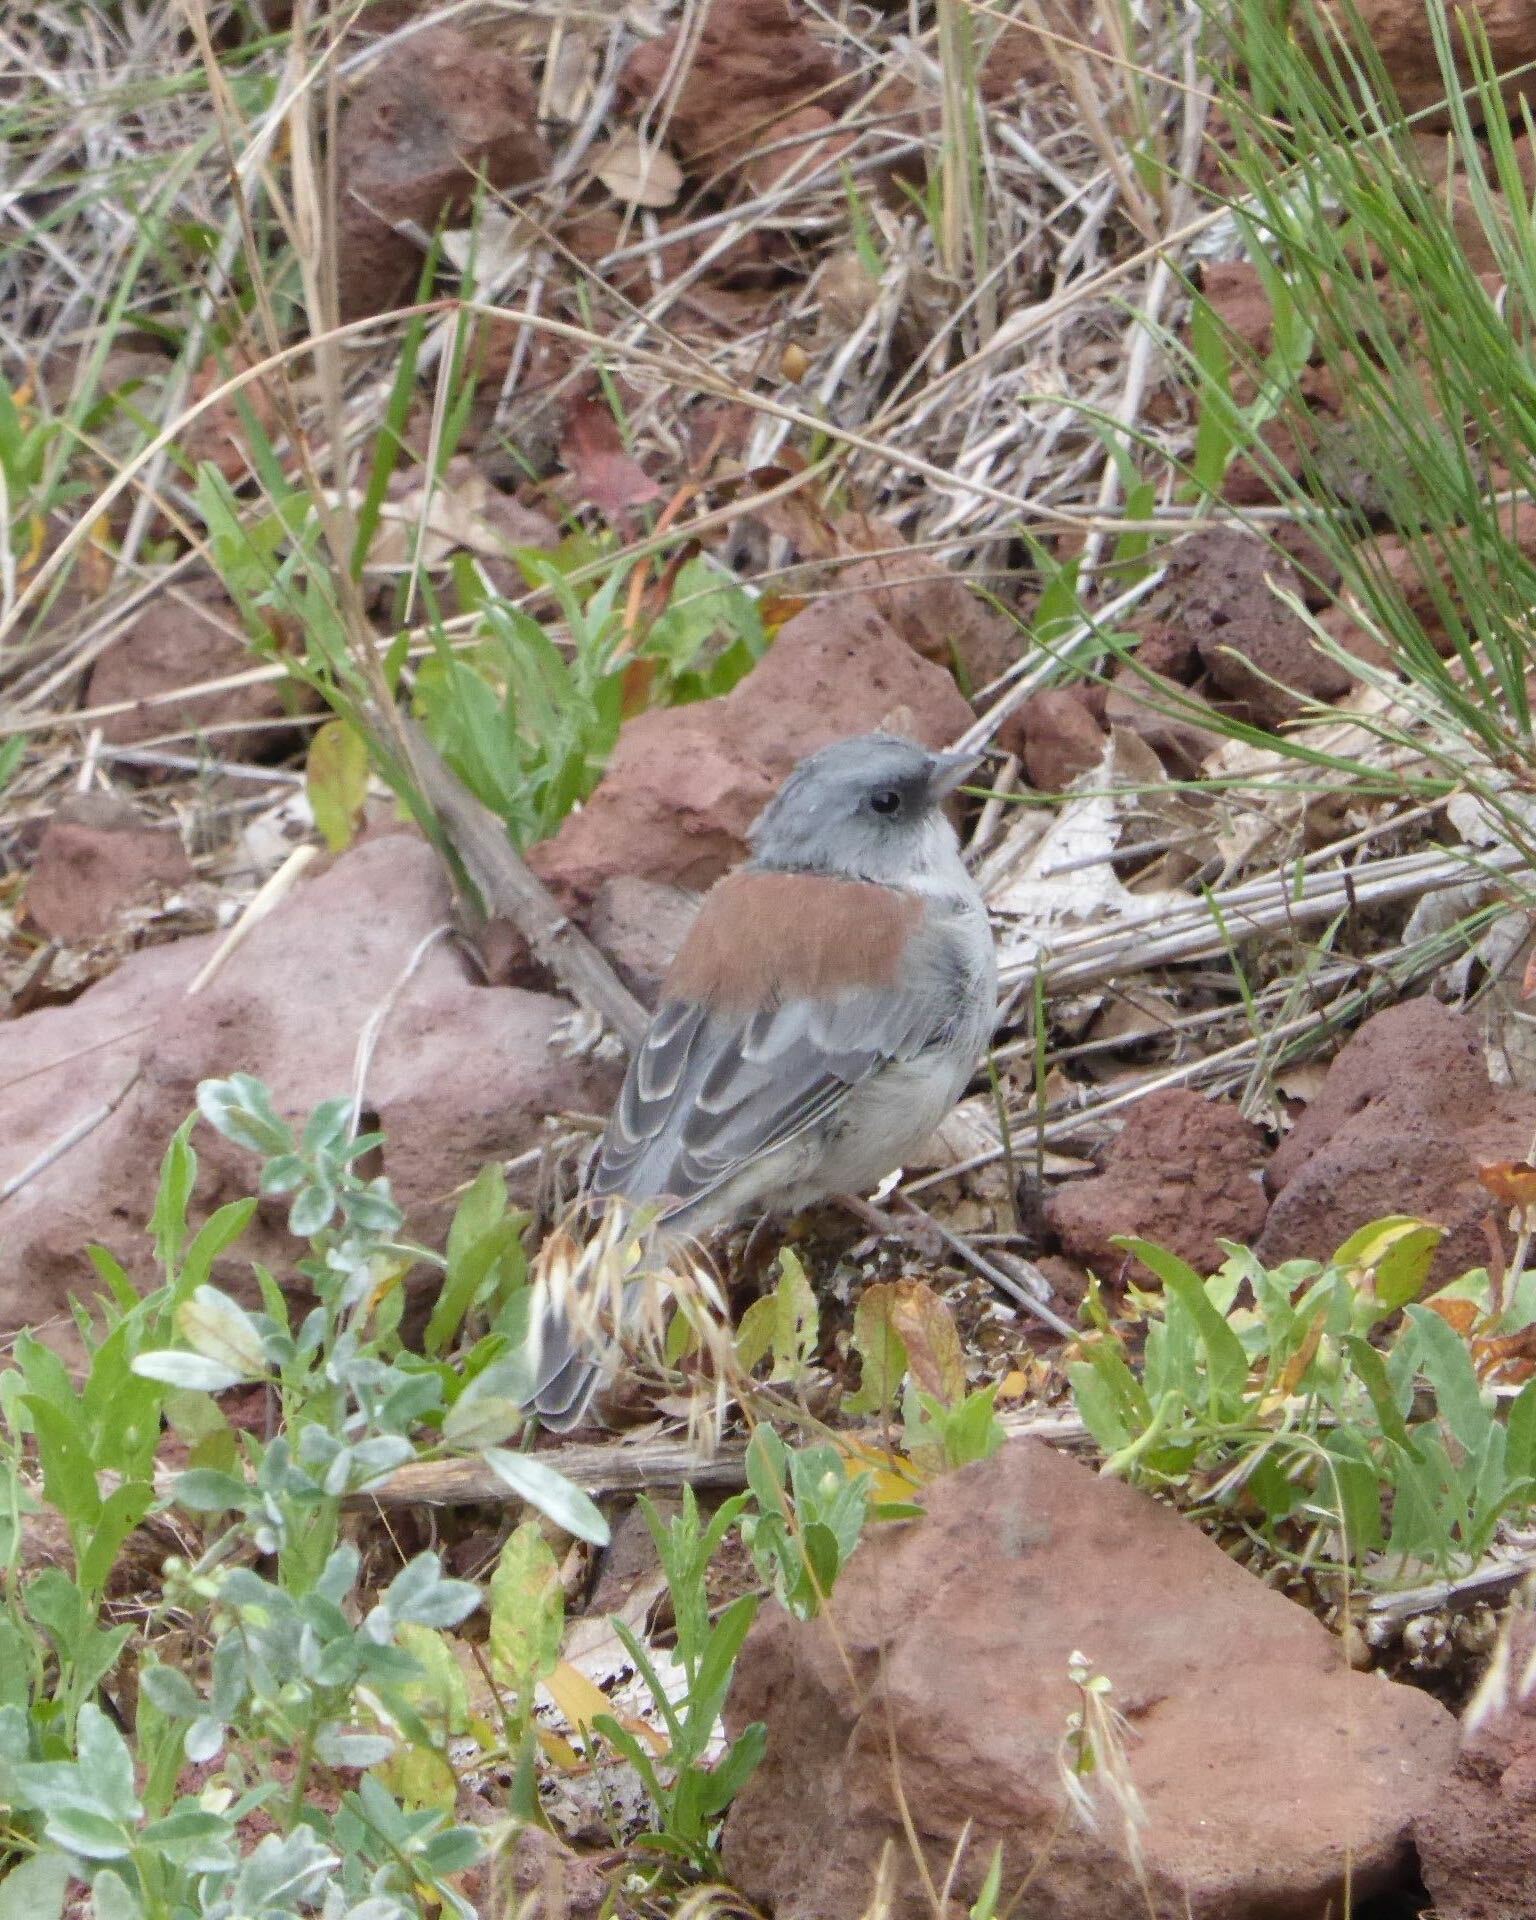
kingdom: Animalia
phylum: Chordata
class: Aves
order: Passeriformes
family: Passerellidae
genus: Junco
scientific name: Junco hyemalis
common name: Dark-eyed junco
